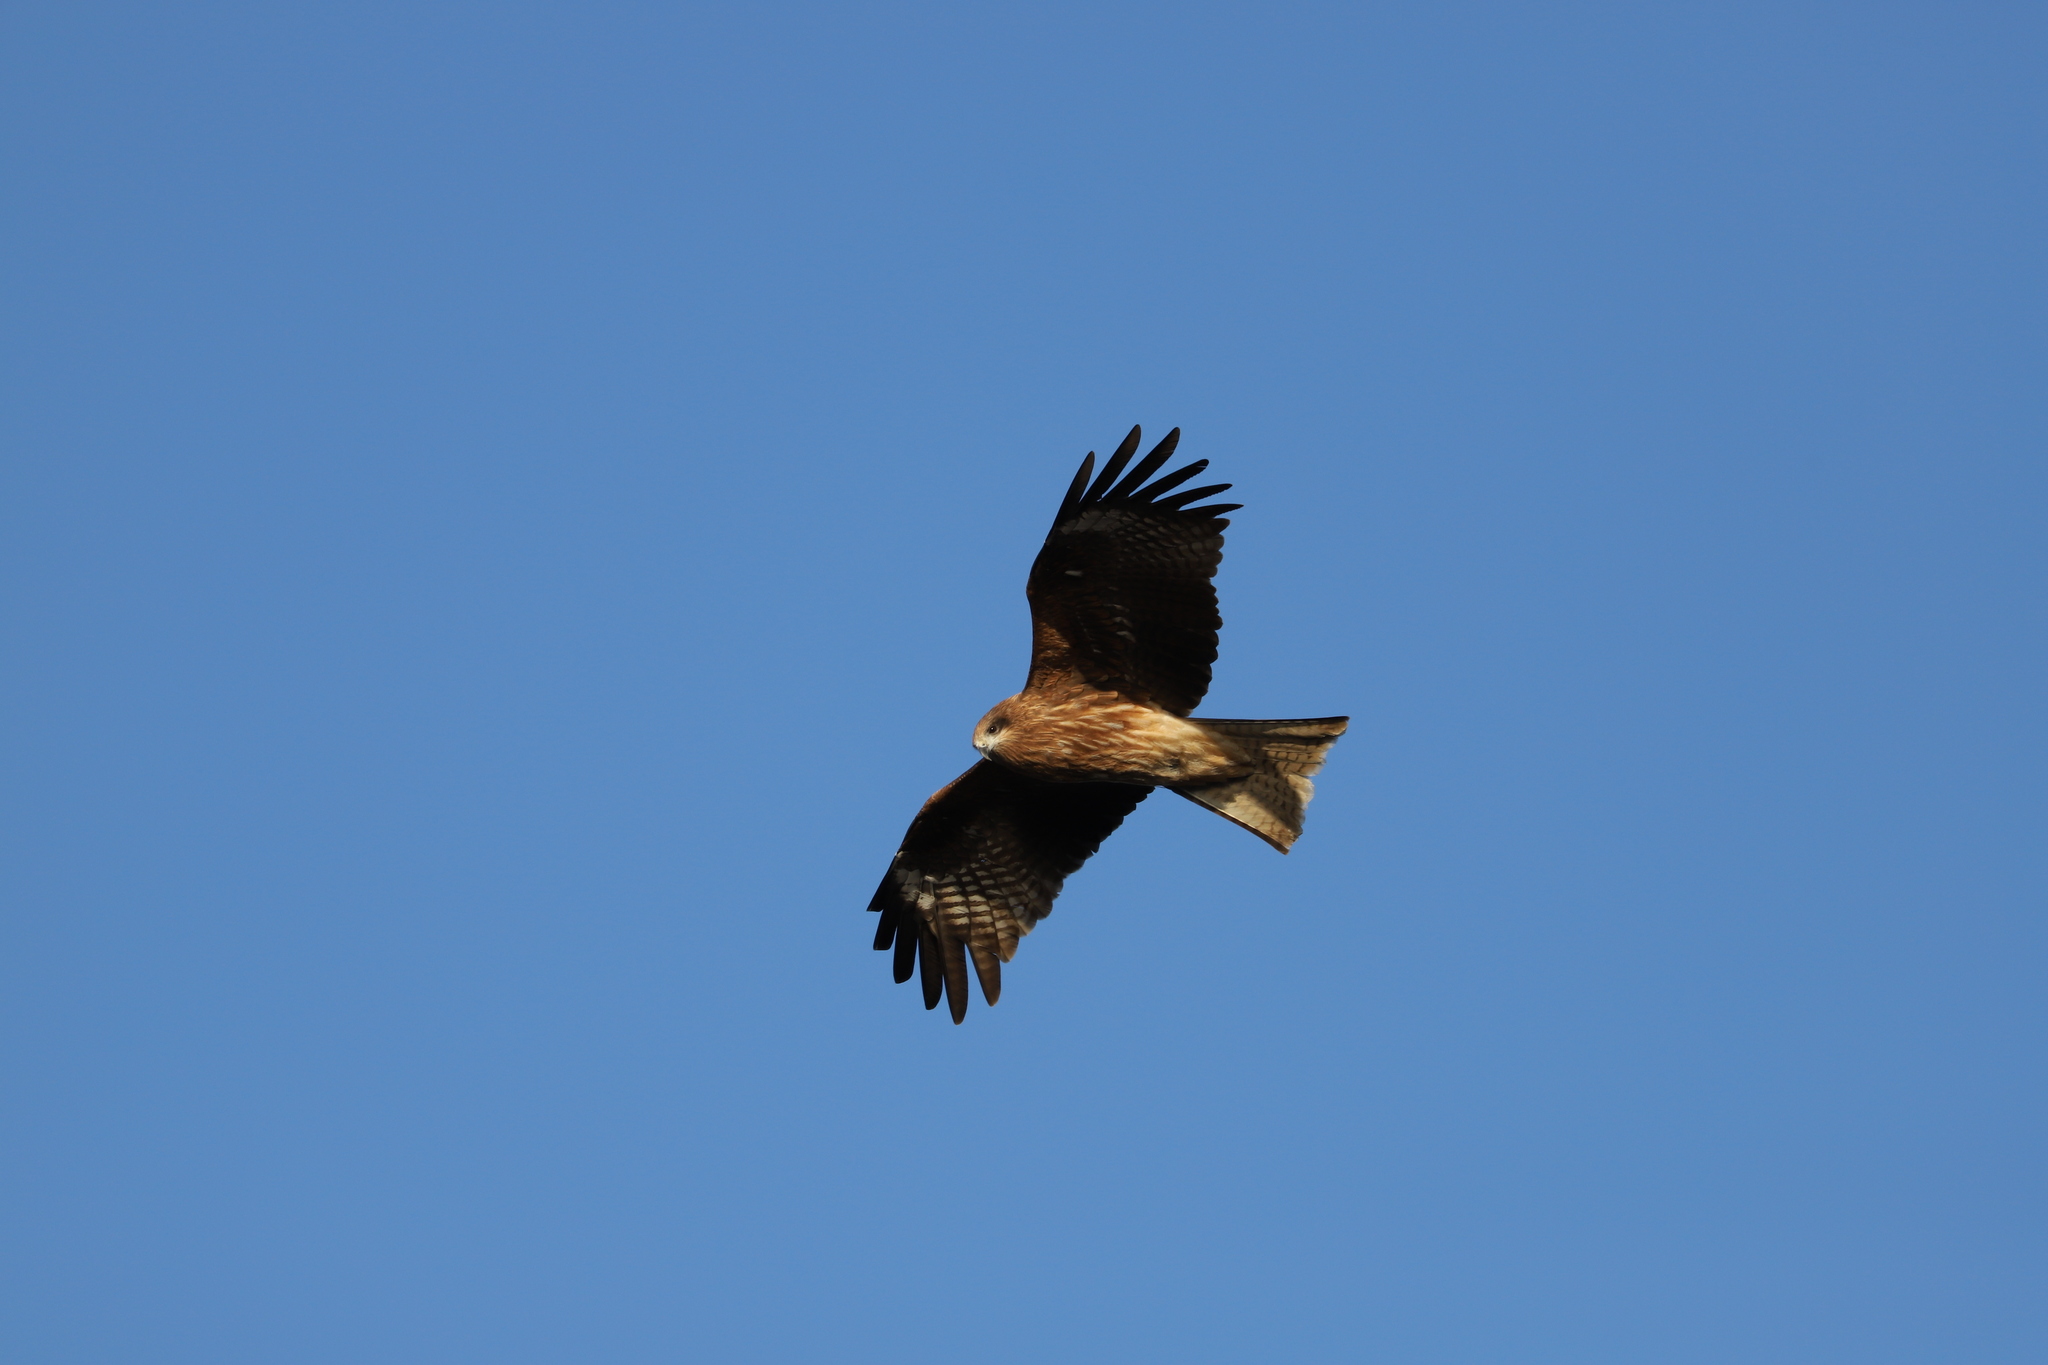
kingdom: Animalia
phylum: Chordata
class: Aves
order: Accipitriformes
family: Accipitridae
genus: Milvus
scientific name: Milvus migrans
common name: Black kite
